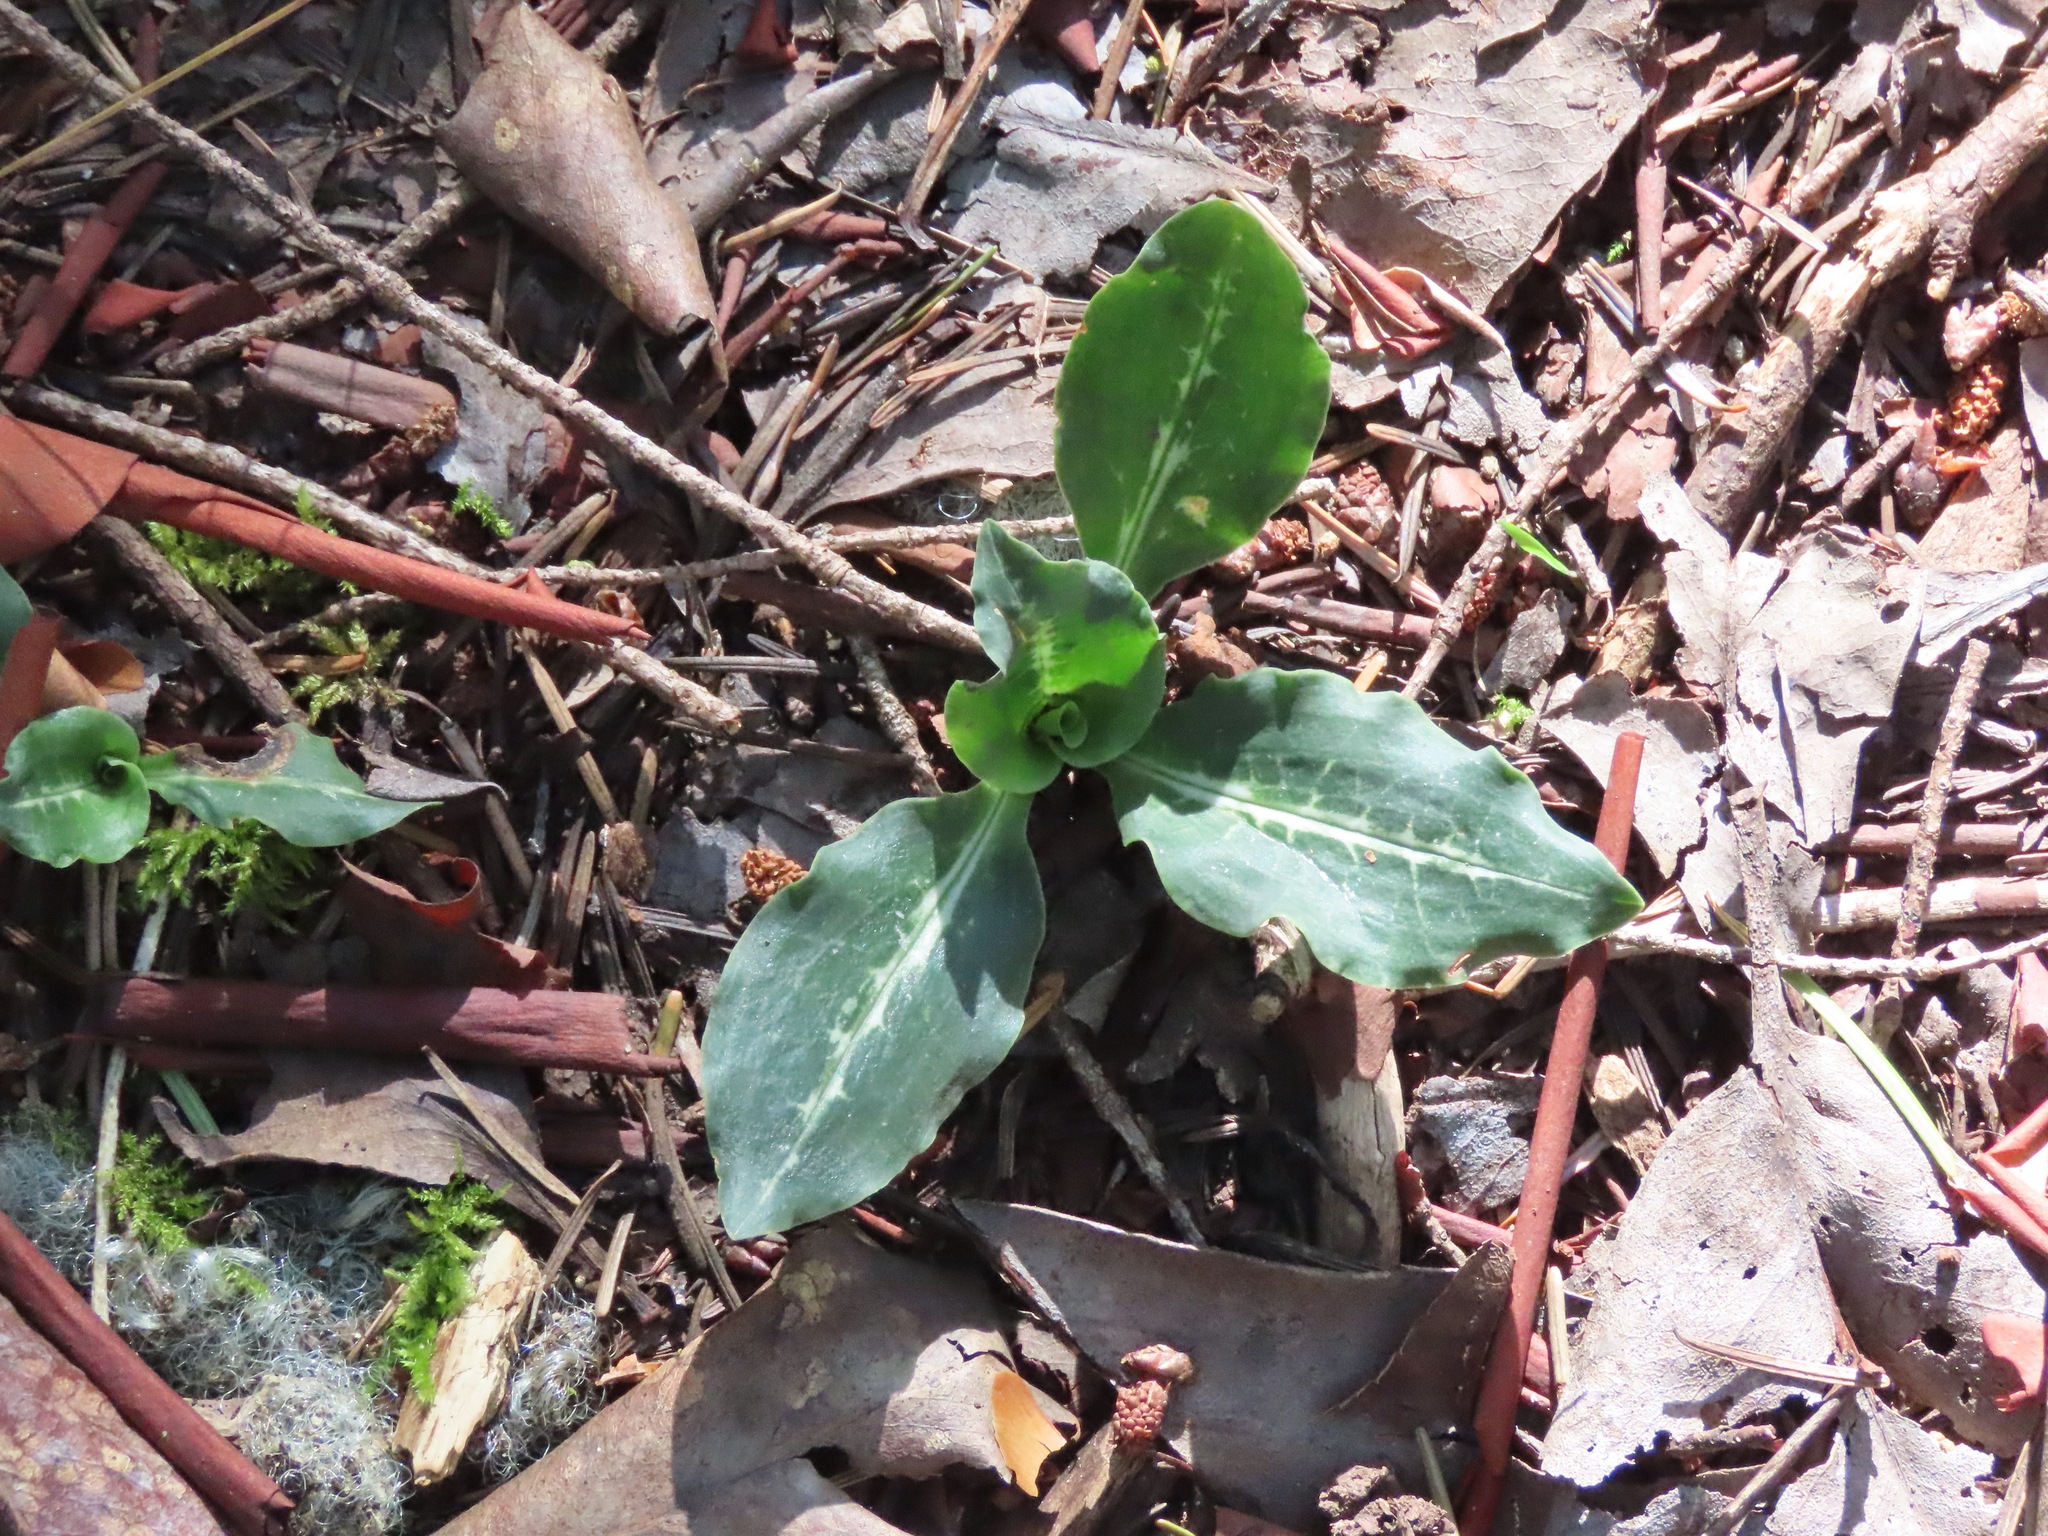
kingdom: Plantae
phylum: Tracheophyta
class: Liliopsida
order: Asparagales
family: Orchidaceae
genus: Goodyera
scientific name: Goodyera oblongifolia
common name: Giant rattlesnake-plantain
